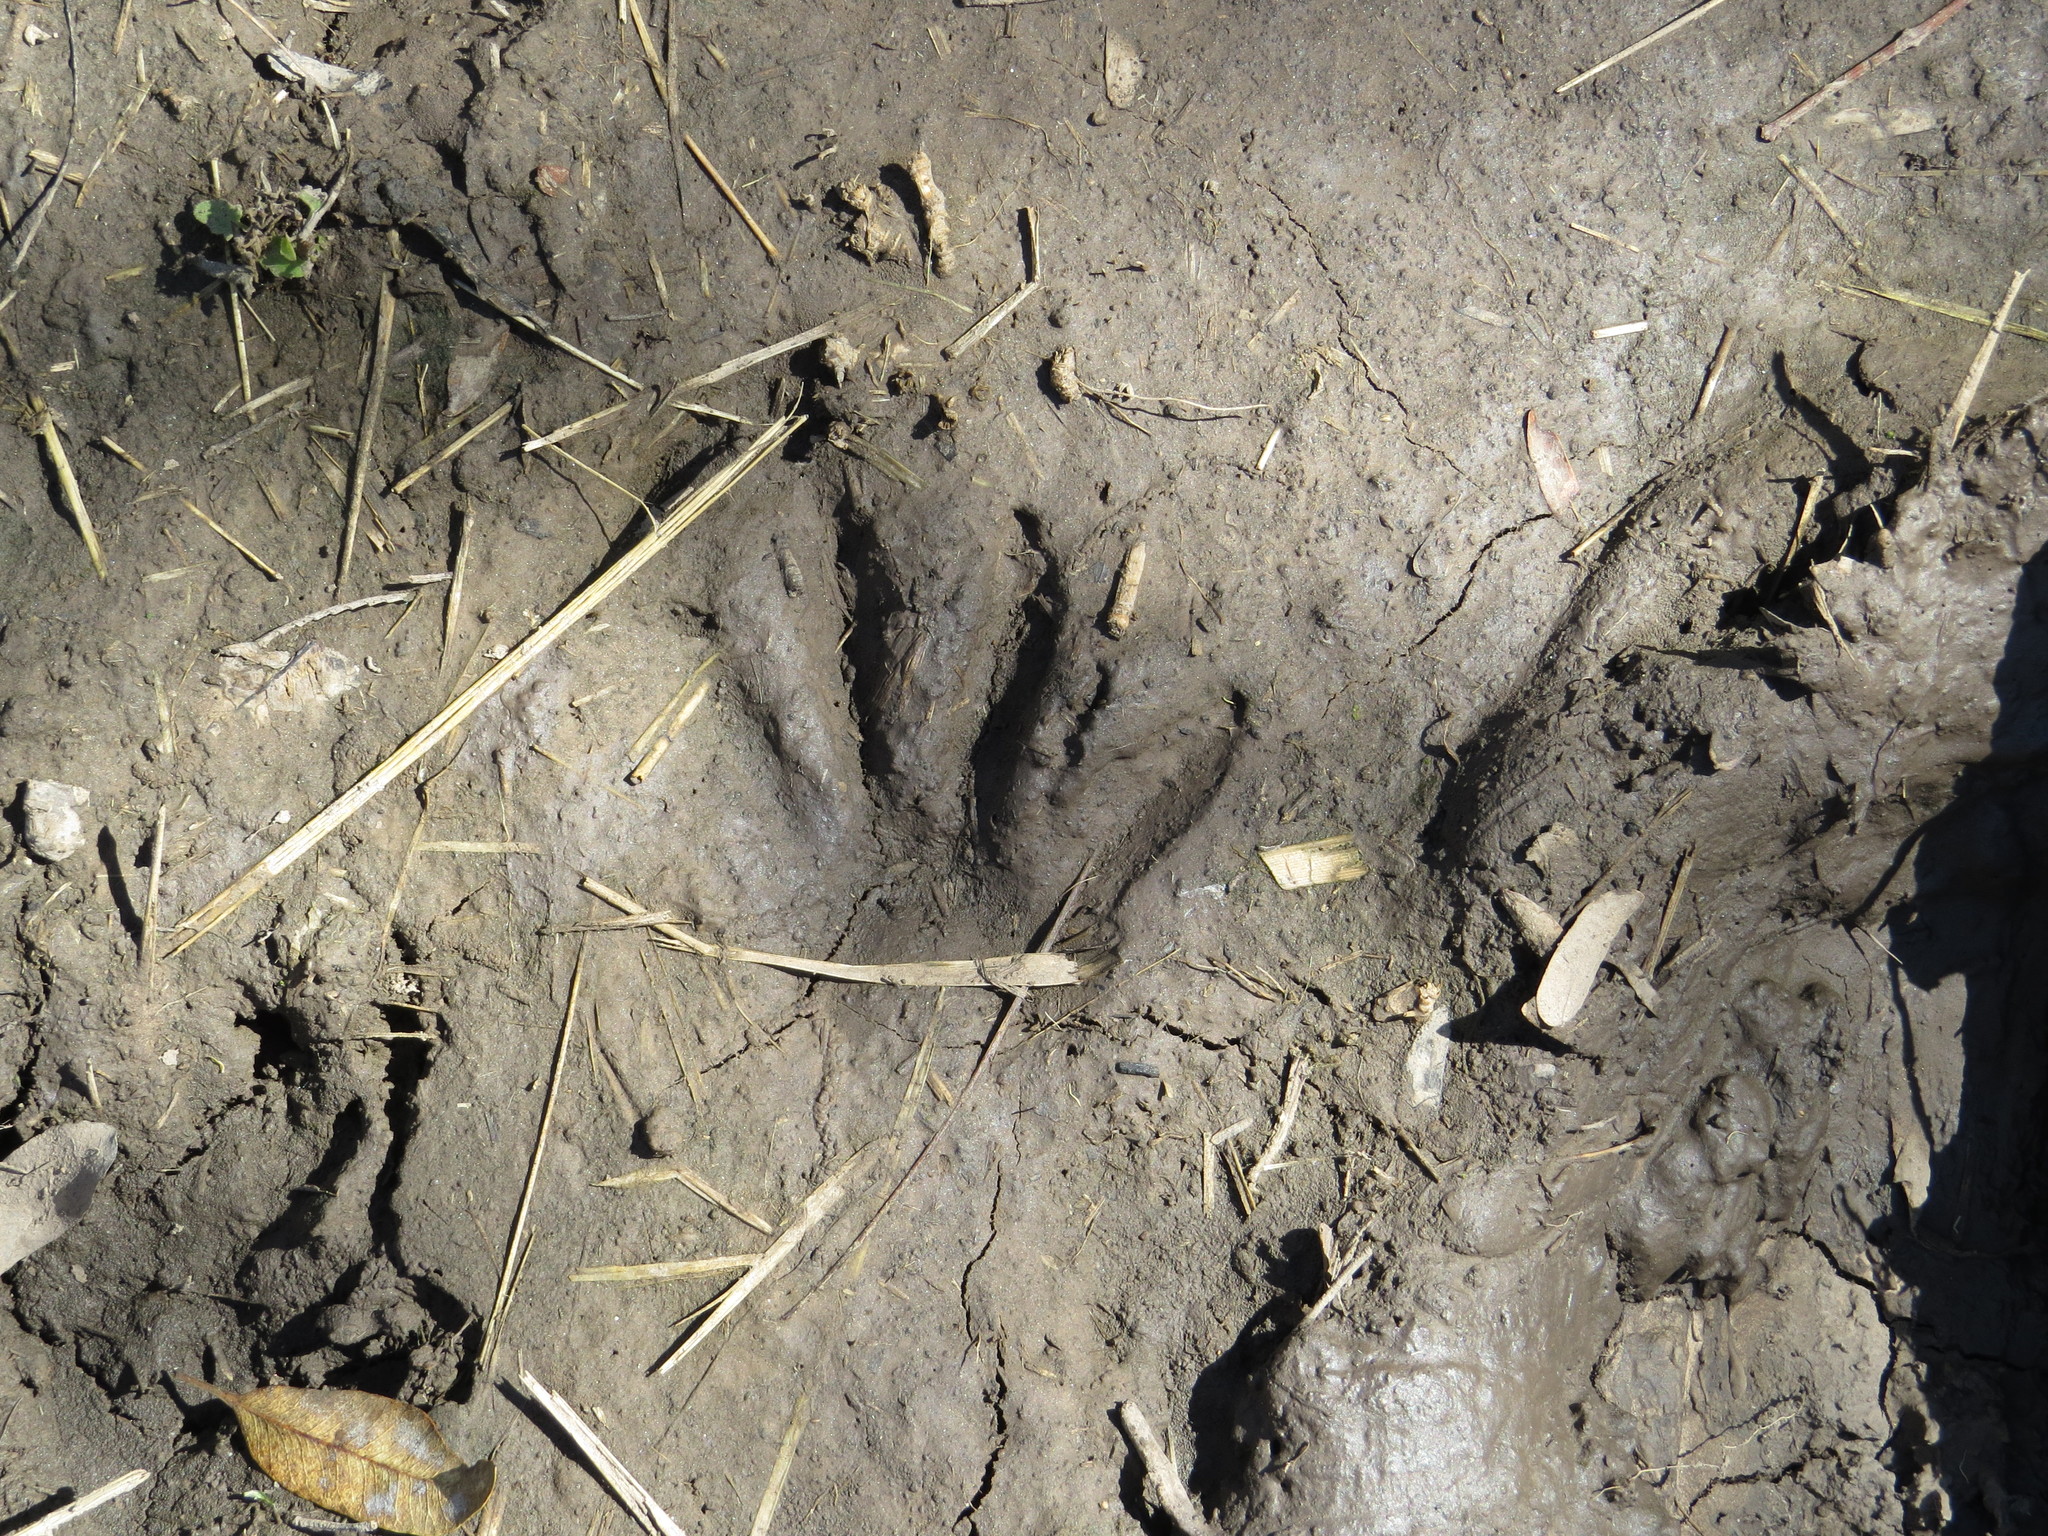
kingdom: Animalia
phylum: Chordata
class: Mammalia
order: Carnivora
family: Procyonidae
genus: Procyon
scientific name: Procyon cancrivorus
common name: Crab-eating raccoon
